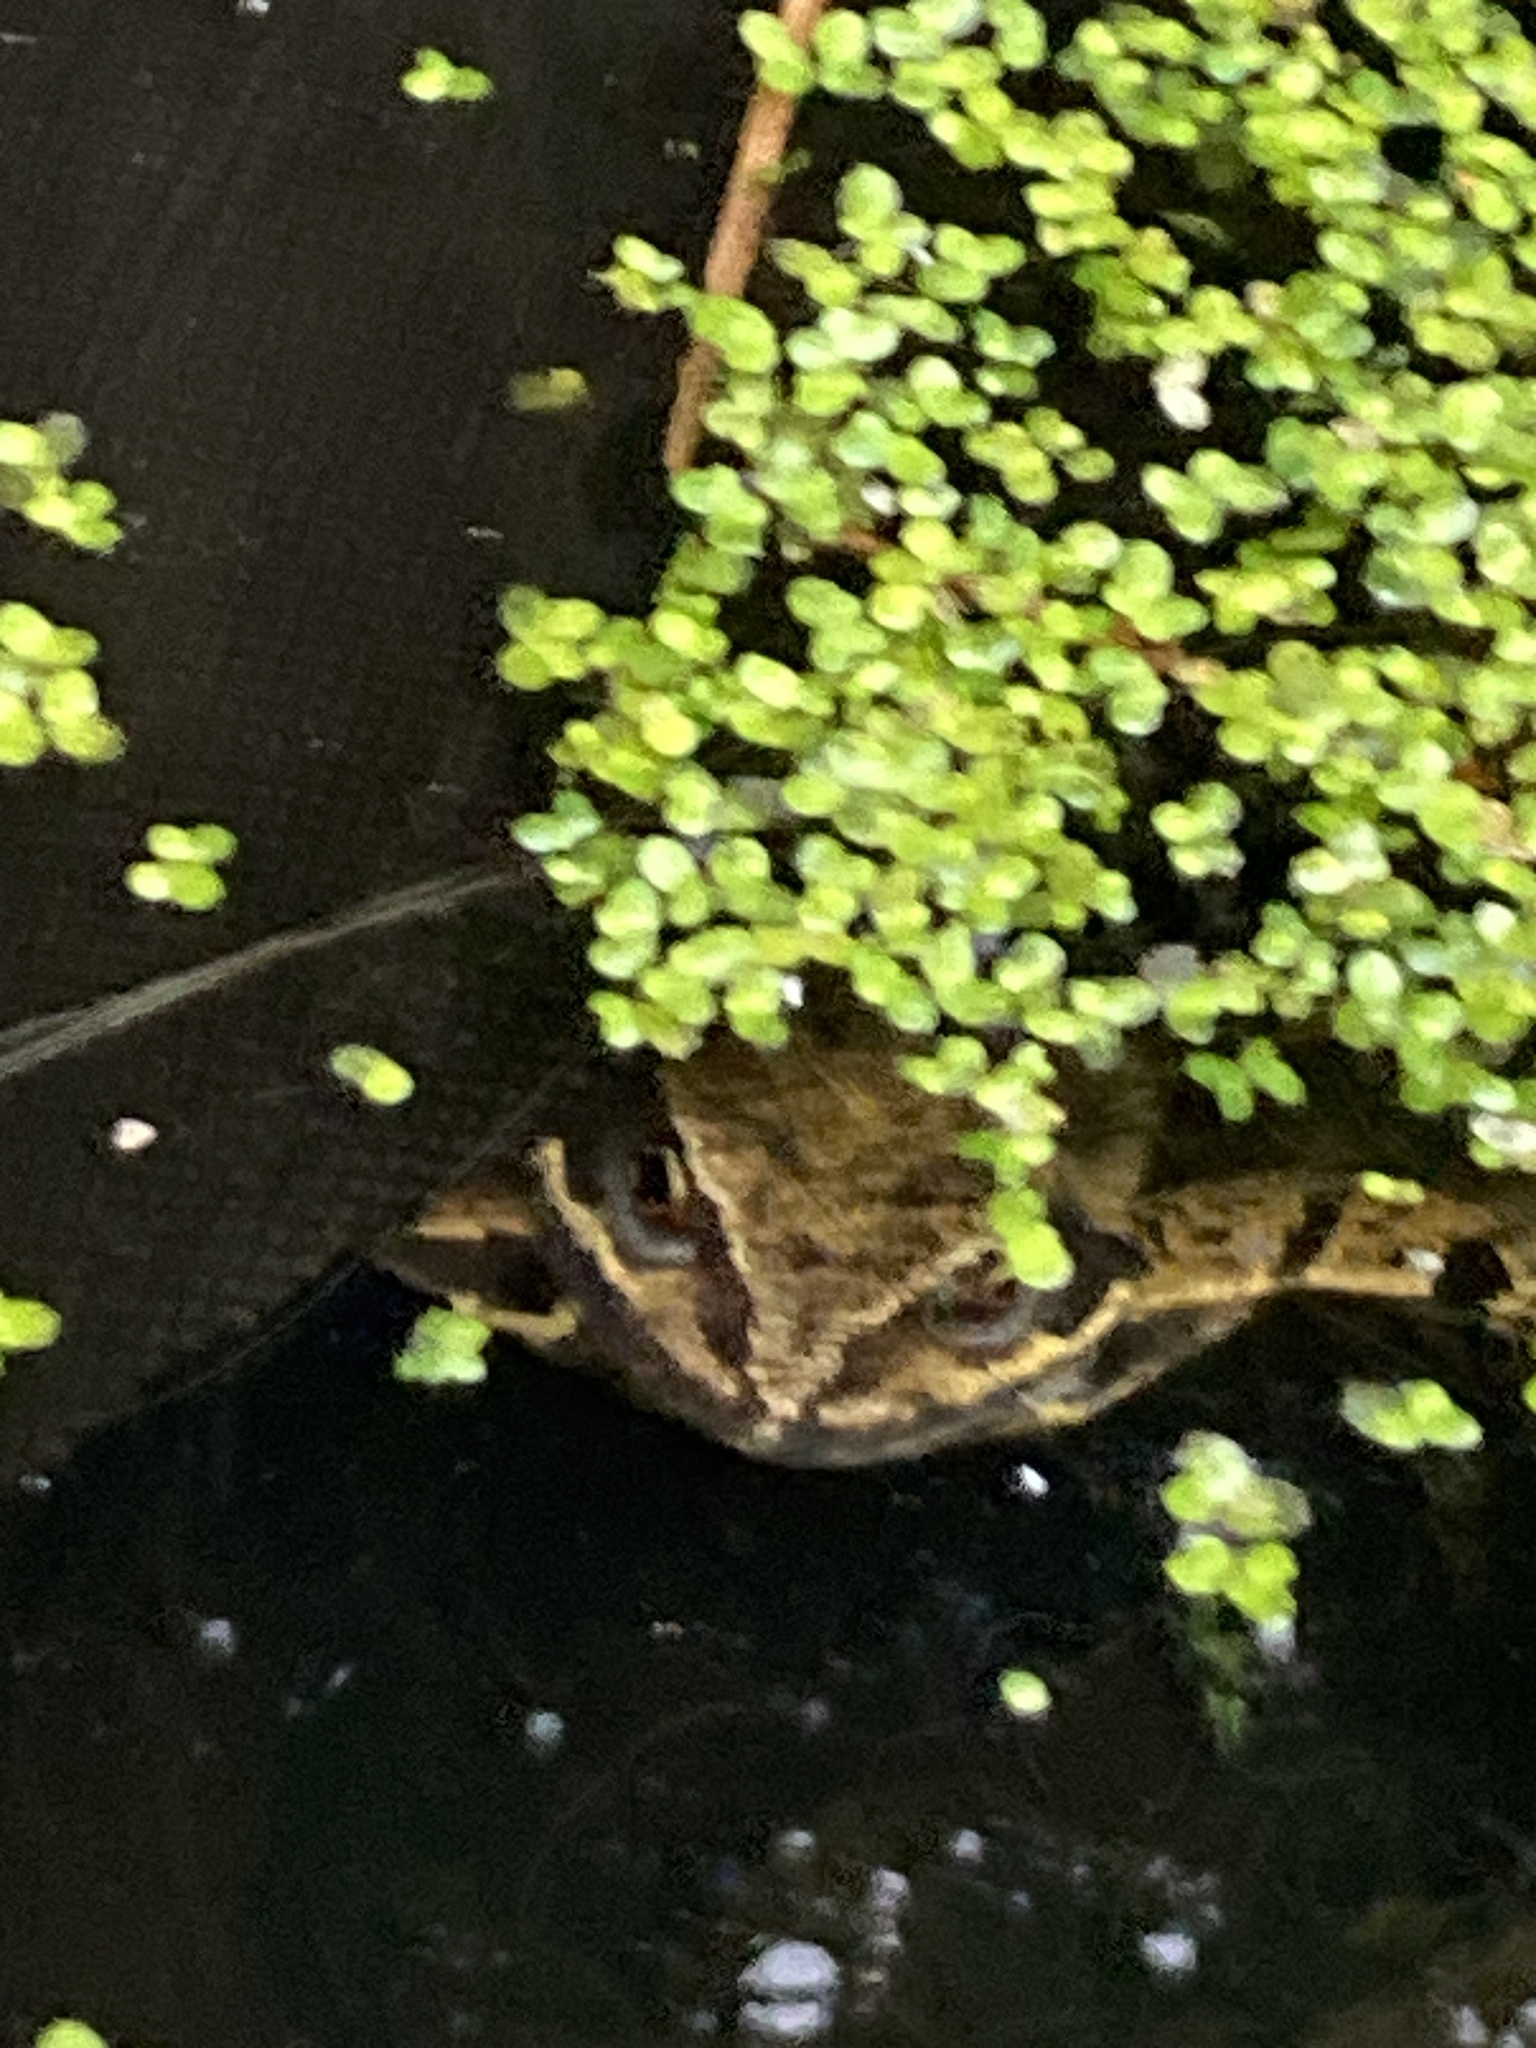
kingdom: Animalia
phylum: Chordata
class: Amphibia
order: Anura
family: Ranidae
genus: Rana
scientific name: Rana temporaria
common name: Common frog
